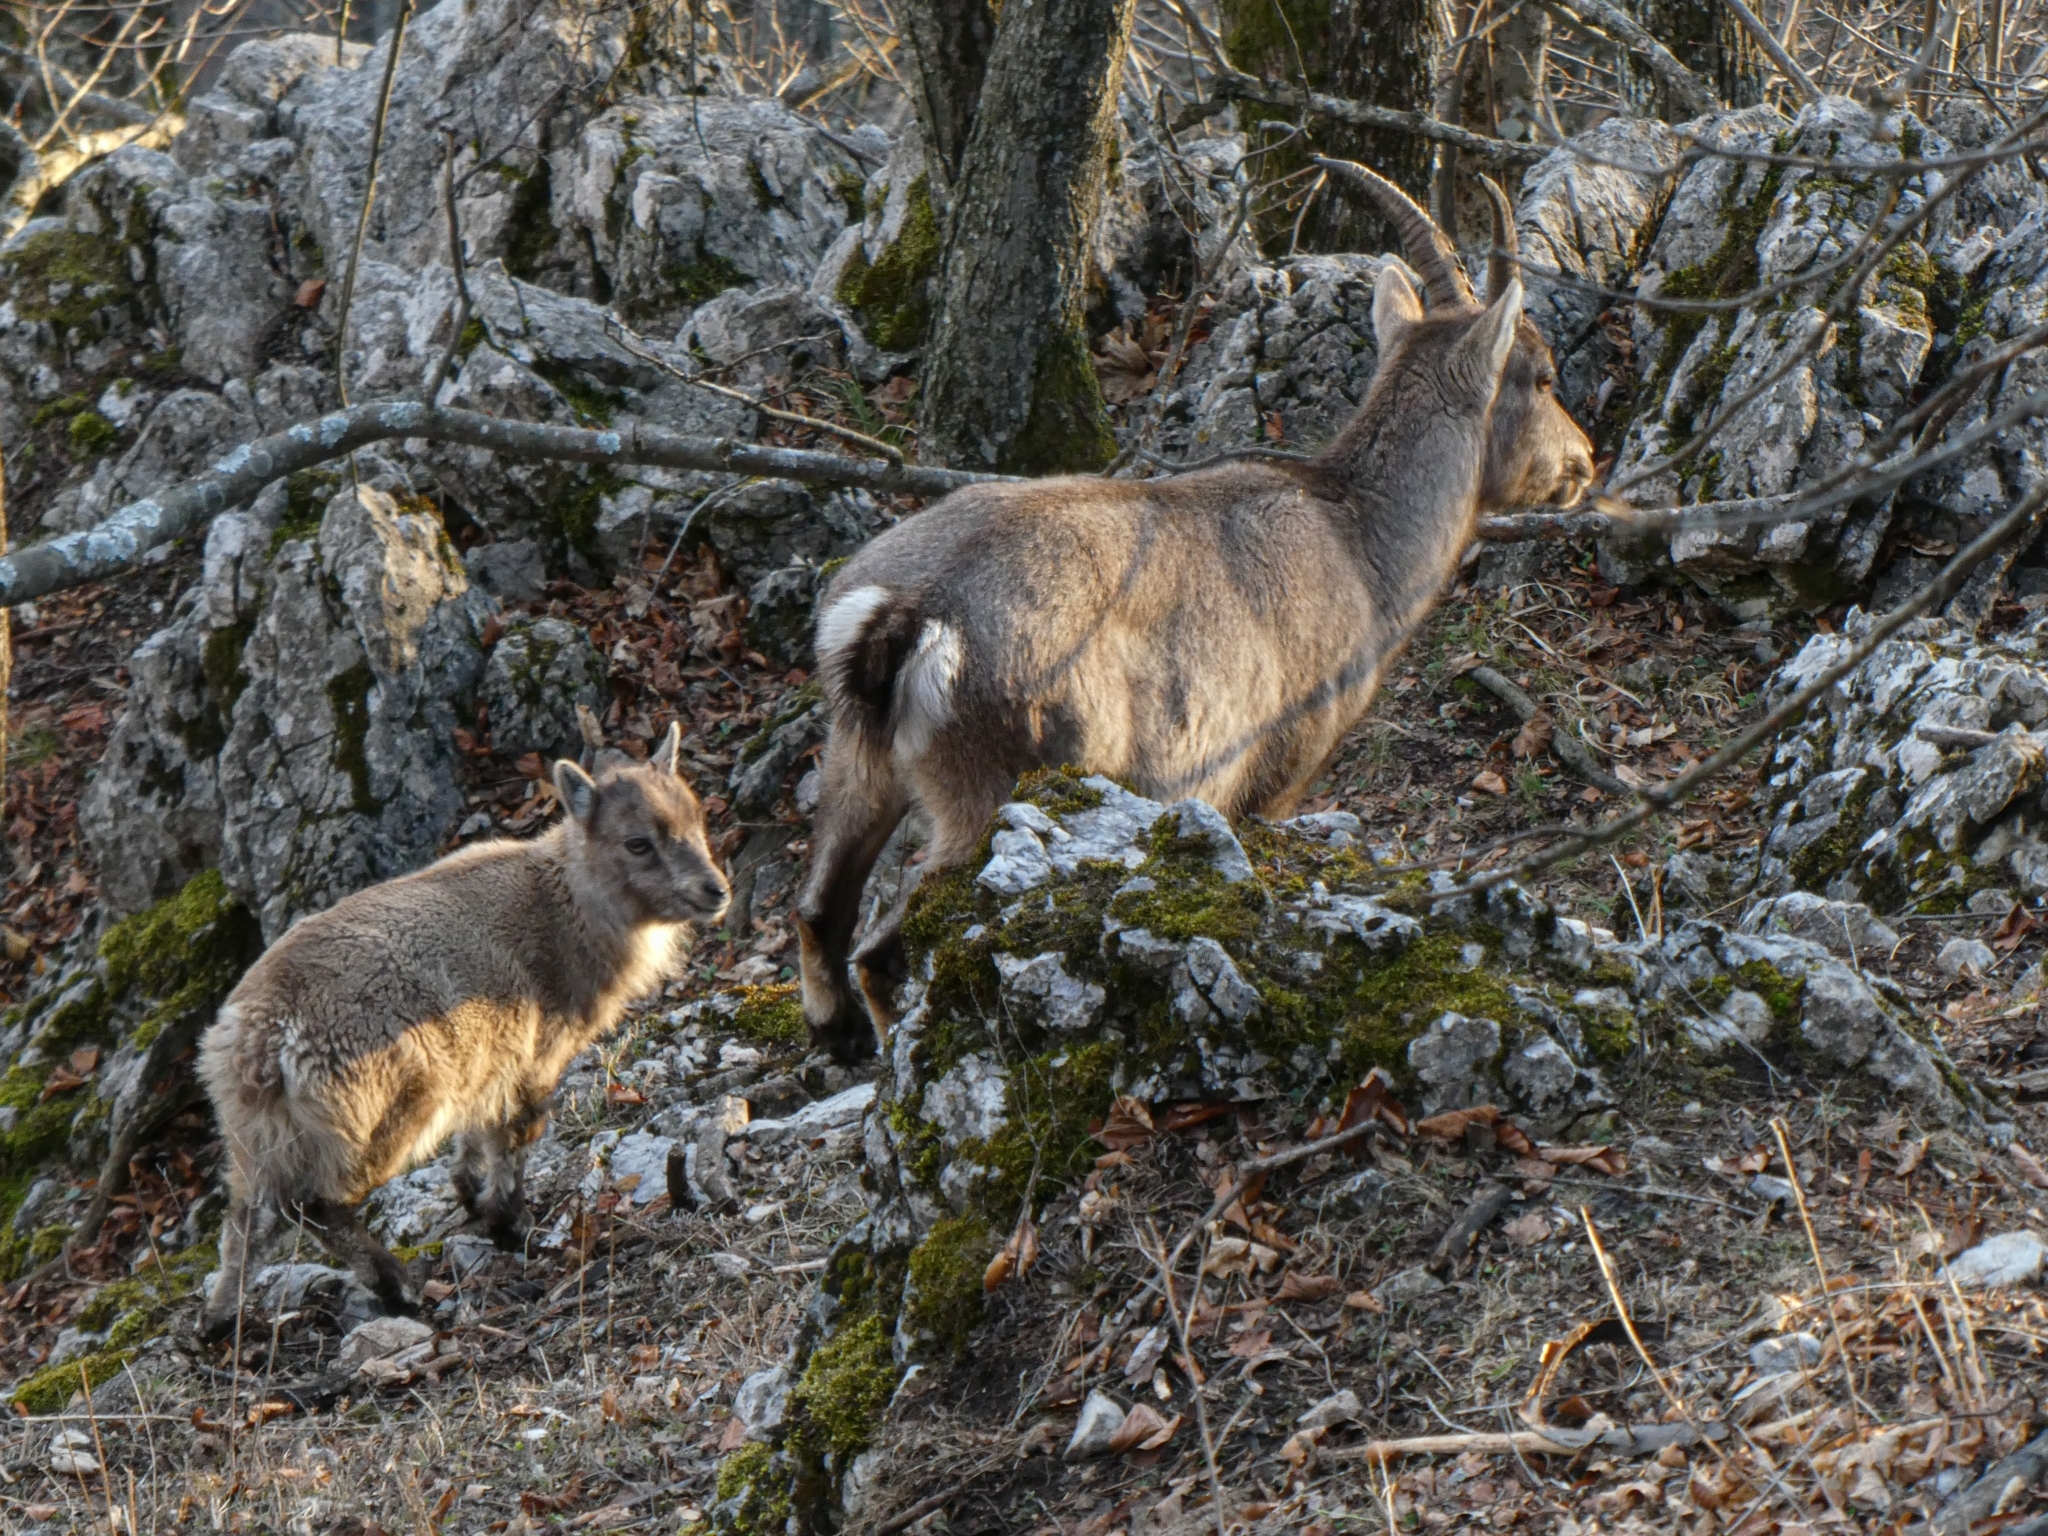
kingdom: Animalia
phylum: Chordata
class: Mammalia
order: Artiodactyla
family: Bovidae
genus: Capra
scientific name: Capra ibex
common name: Alpine ibex
